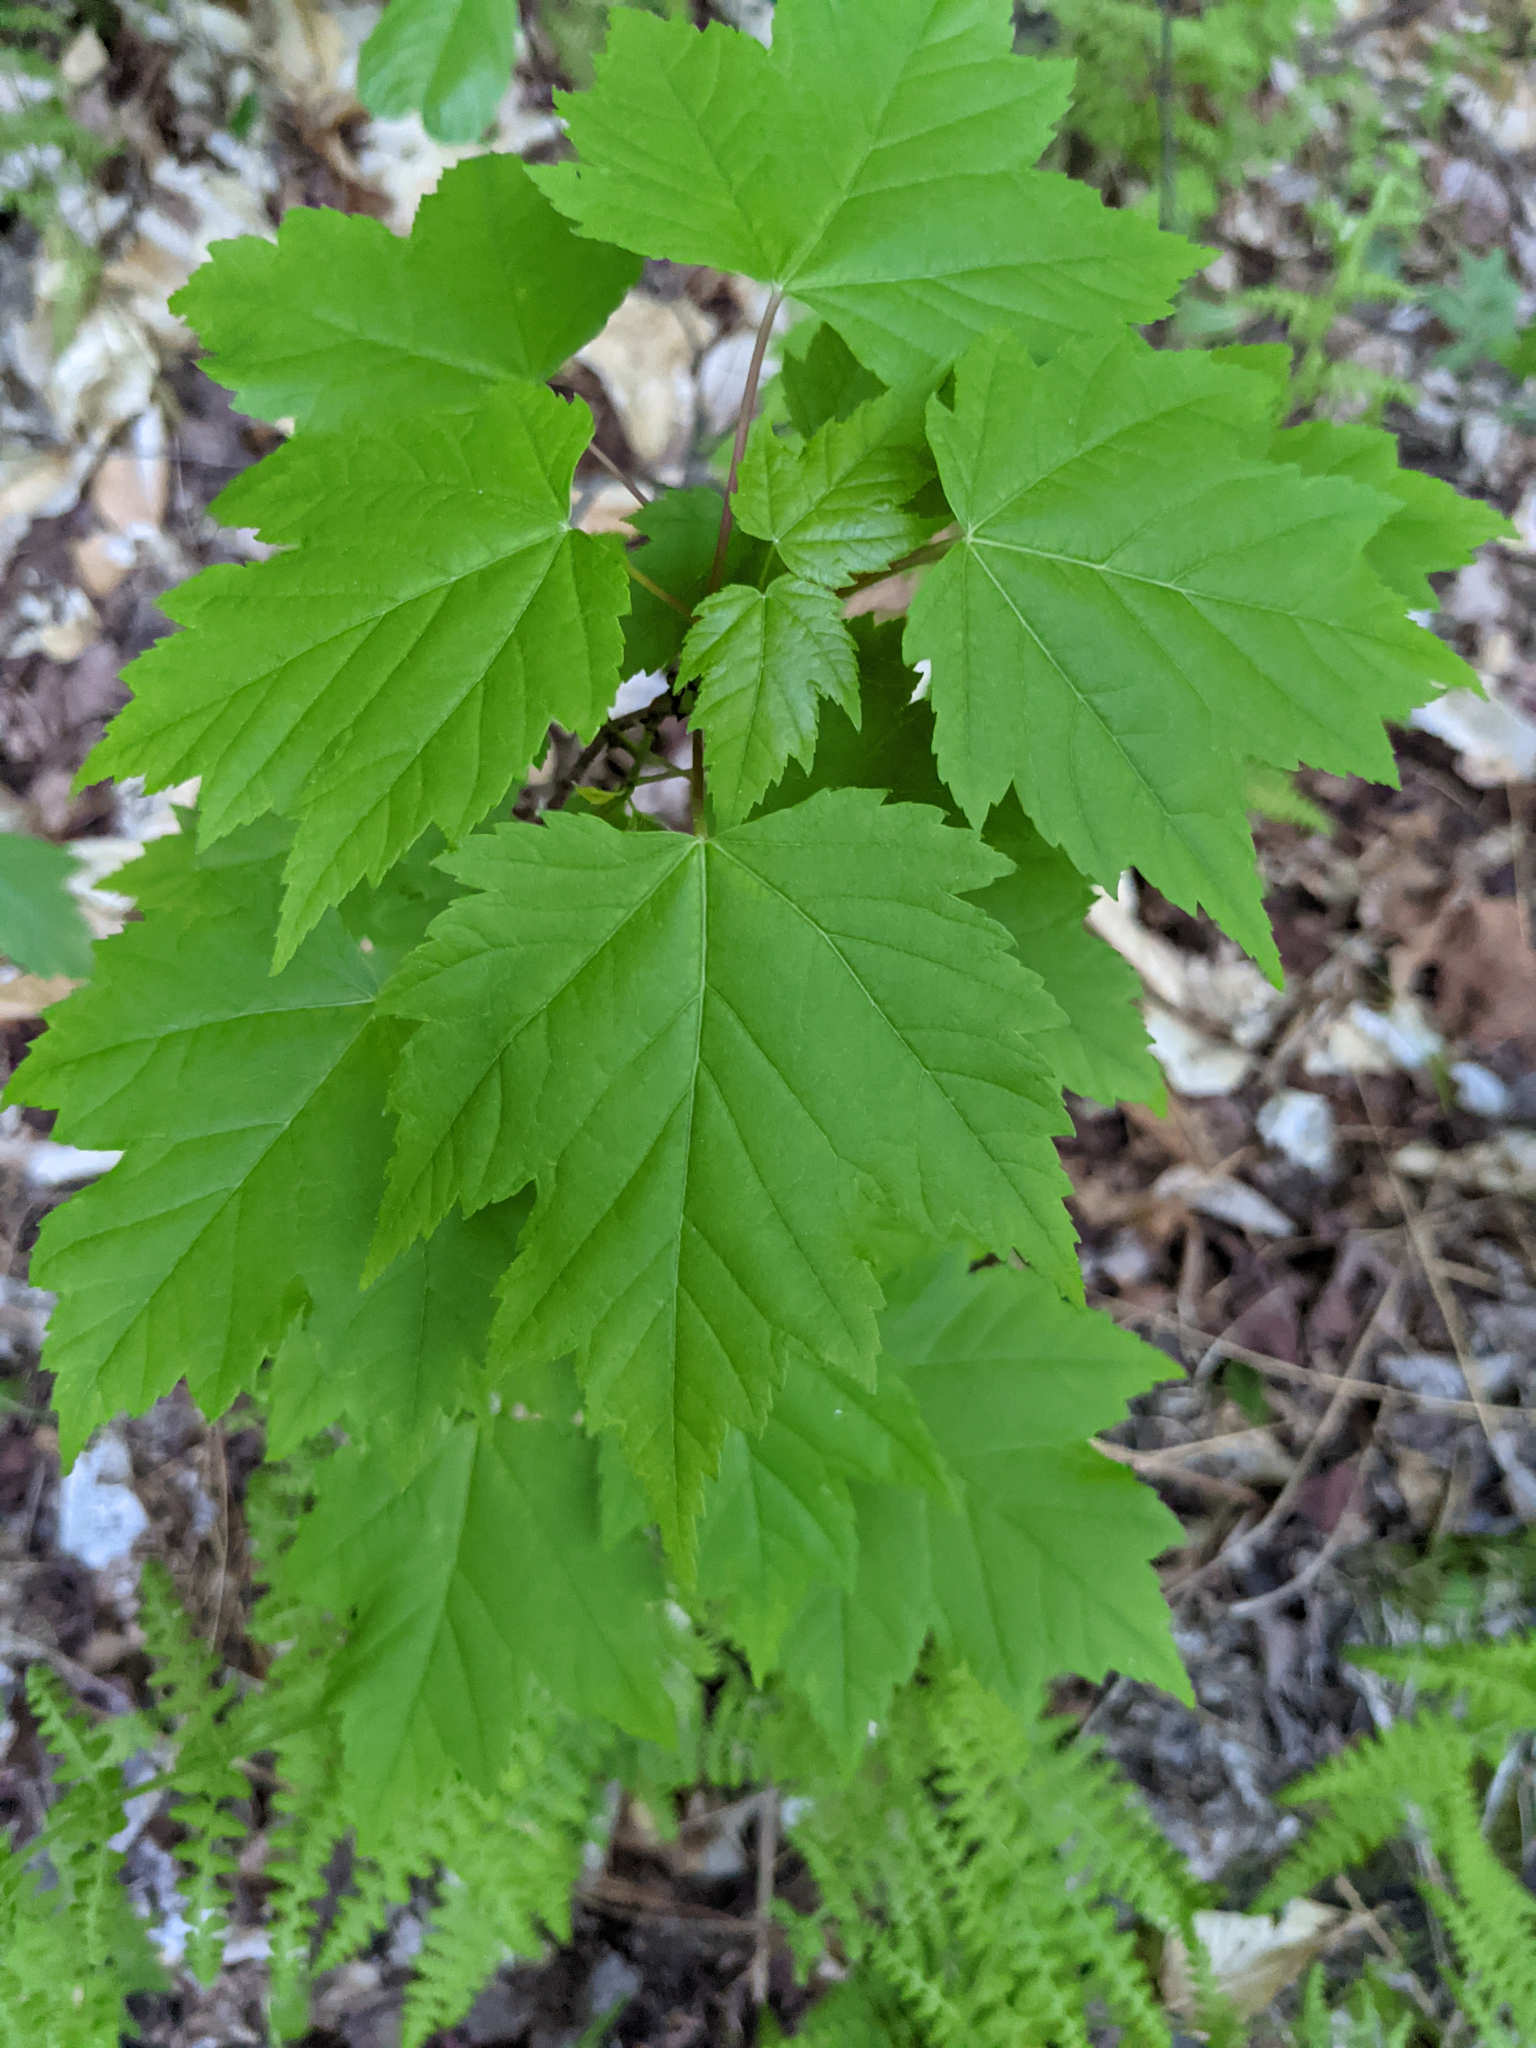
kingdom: Plantae
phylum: Tracheophyta
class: Magnoliopsida
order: Sapindales
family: Sapindaceae
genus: Acer
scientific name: Acer rubrum
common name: Red maple
